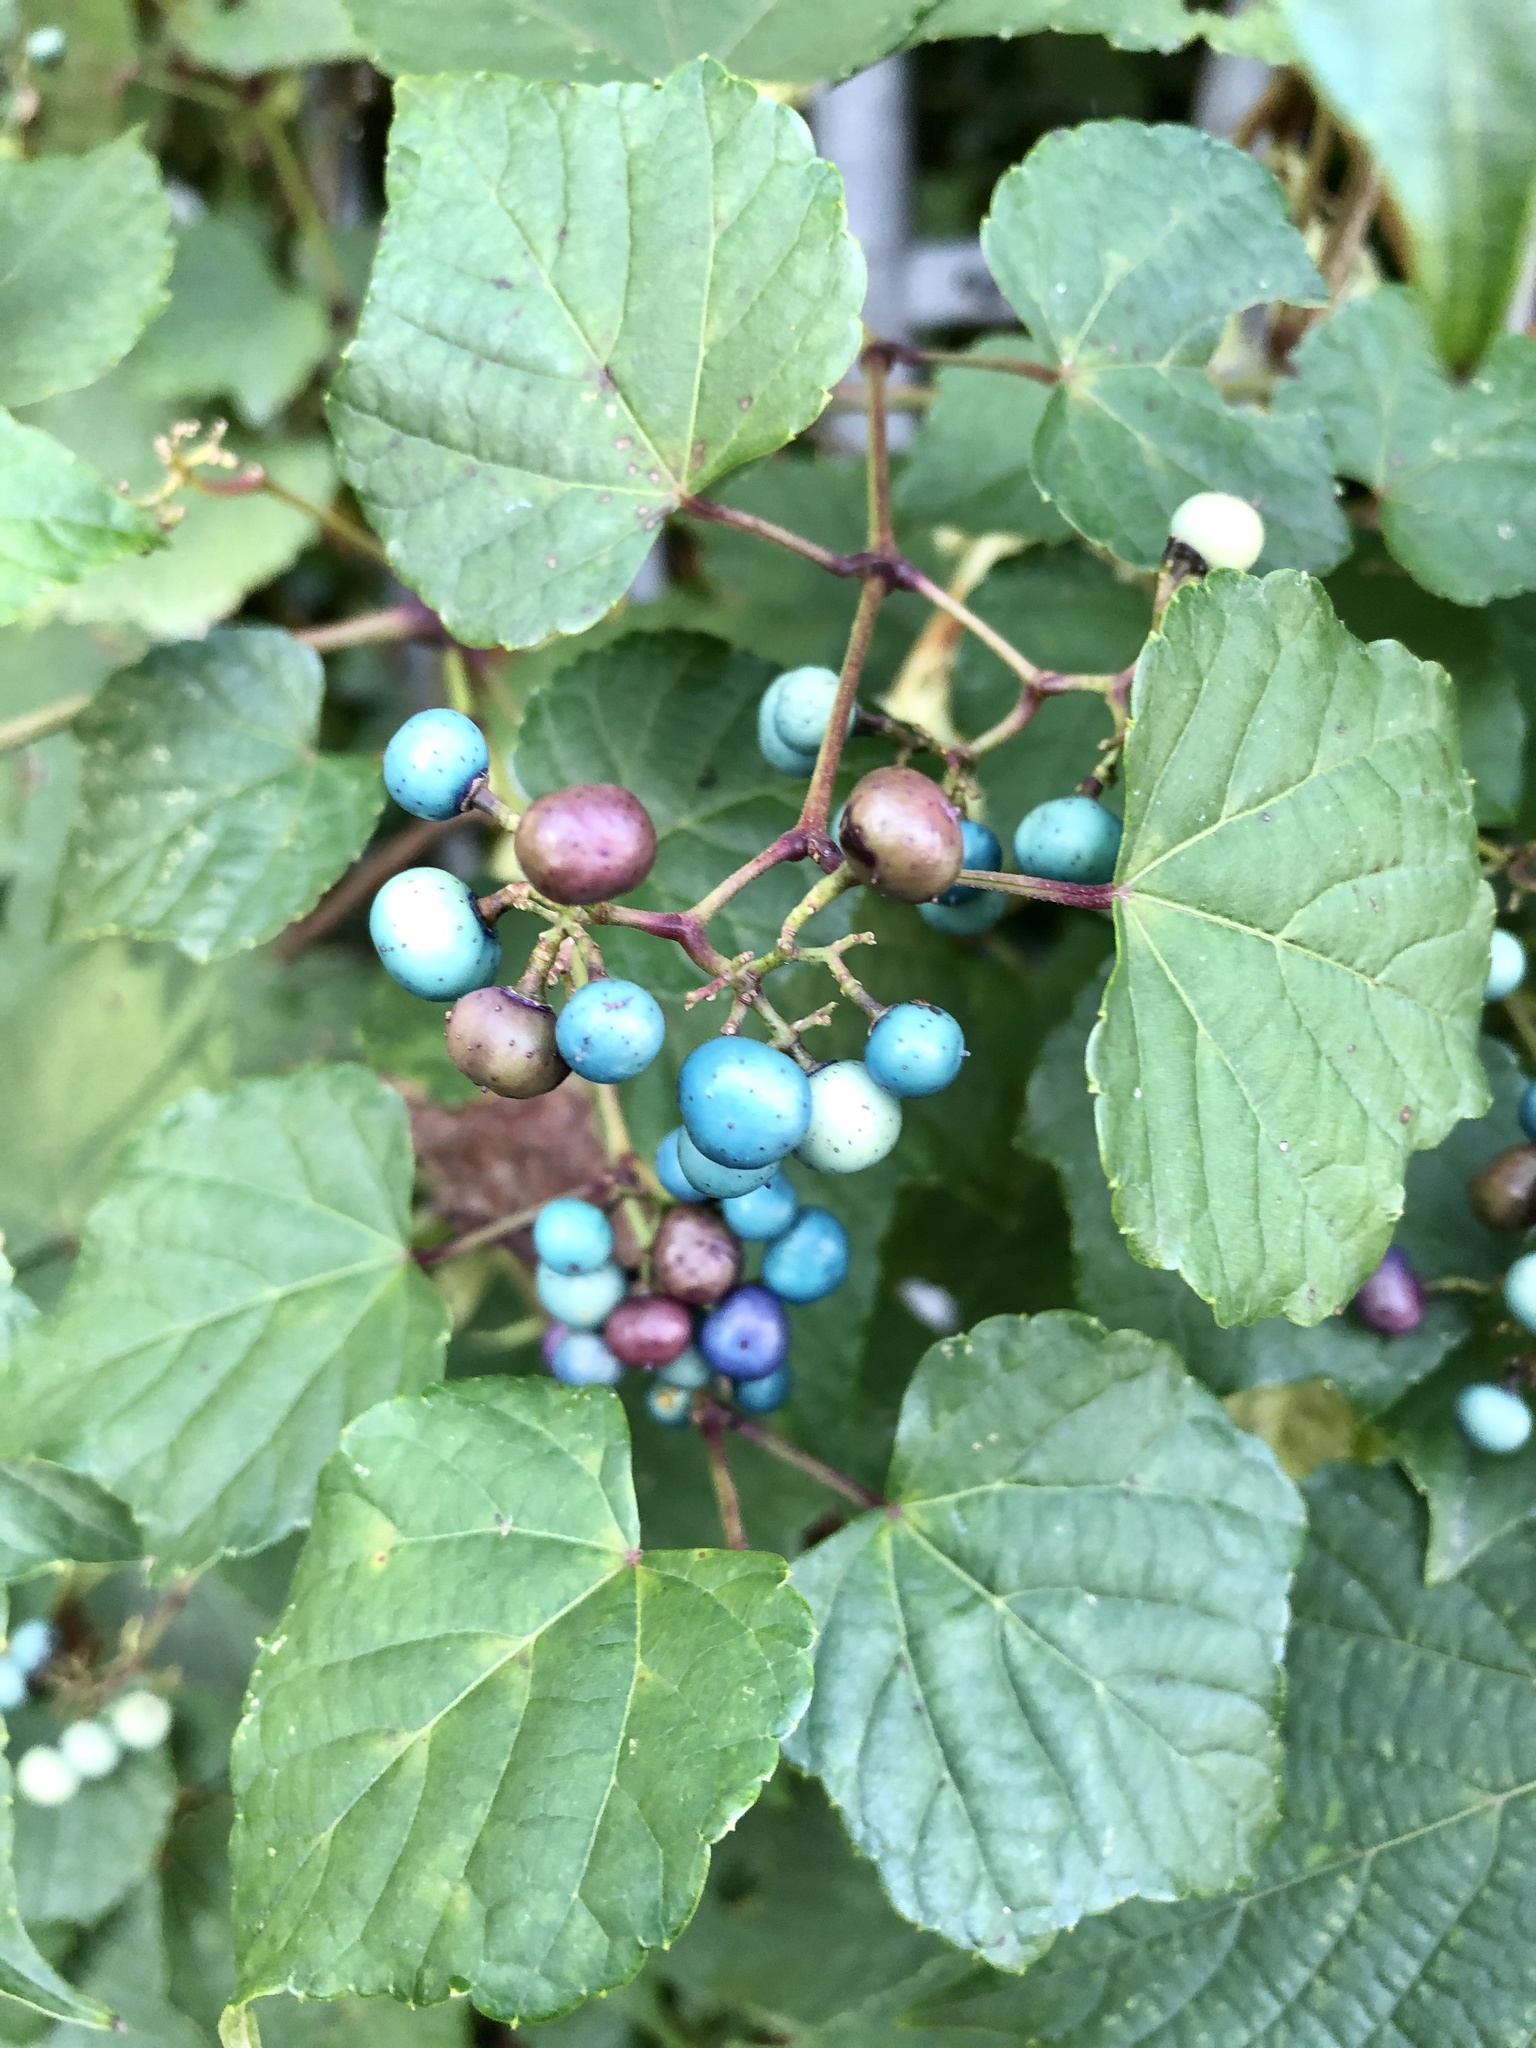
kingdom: Plantae
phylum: Tracheophyta
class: Magnoliopsida
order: Vitales
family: Vitaceae
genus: Ampelopsis
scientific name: Ampelopsis glandulosa
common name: Amur peppervine
